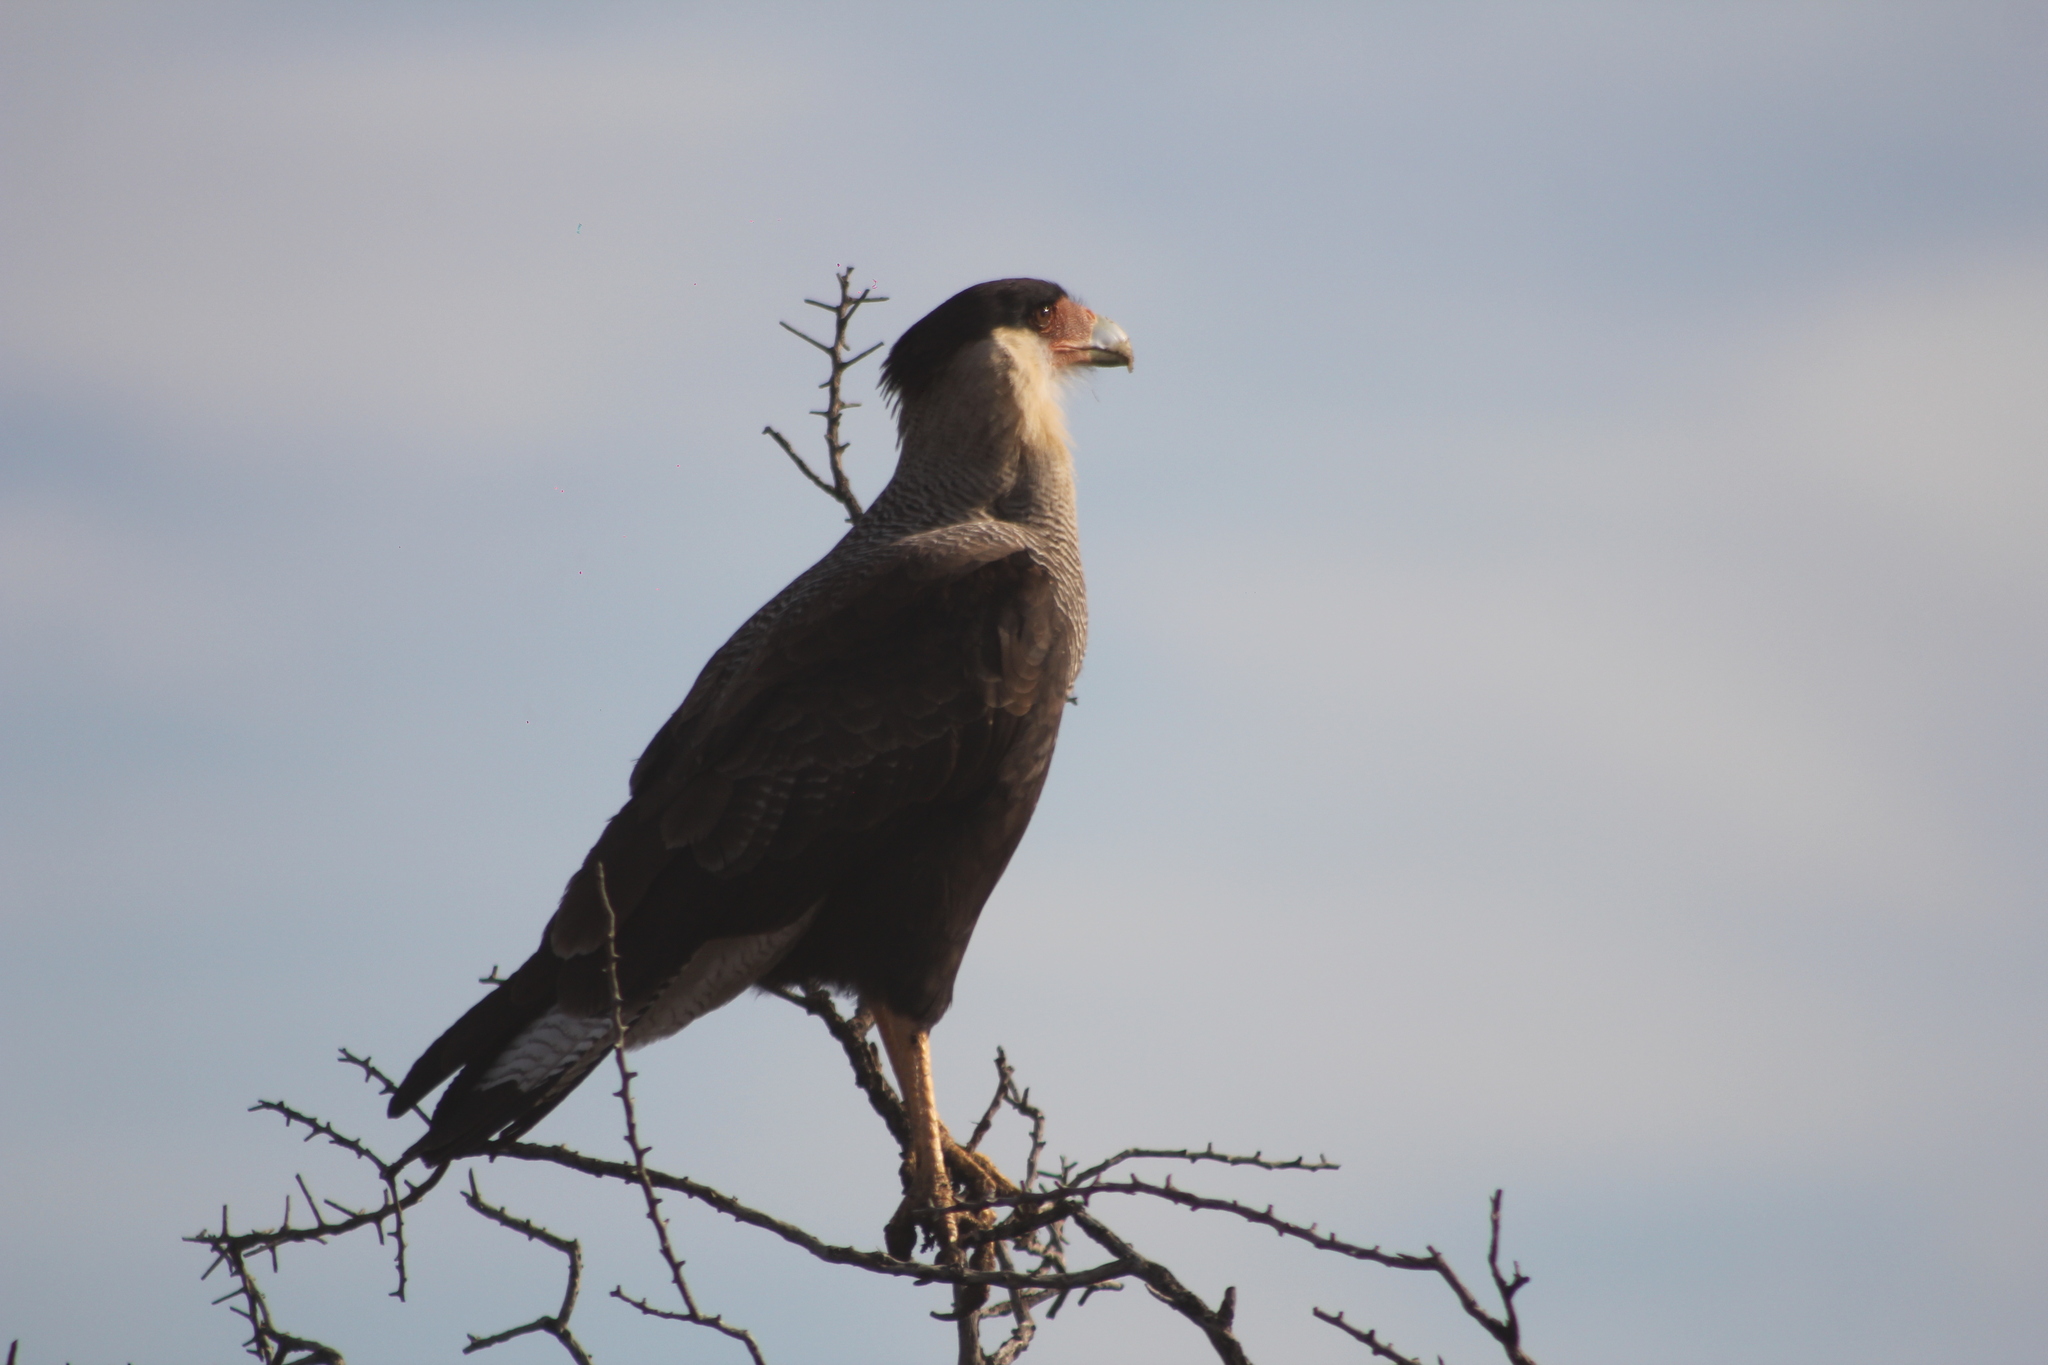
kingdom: Animalia
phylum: Chordata
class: Aves
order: Falconiformes
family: Falconidae
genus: Caracara
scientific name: Caracara plancus
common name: Southern caracara
